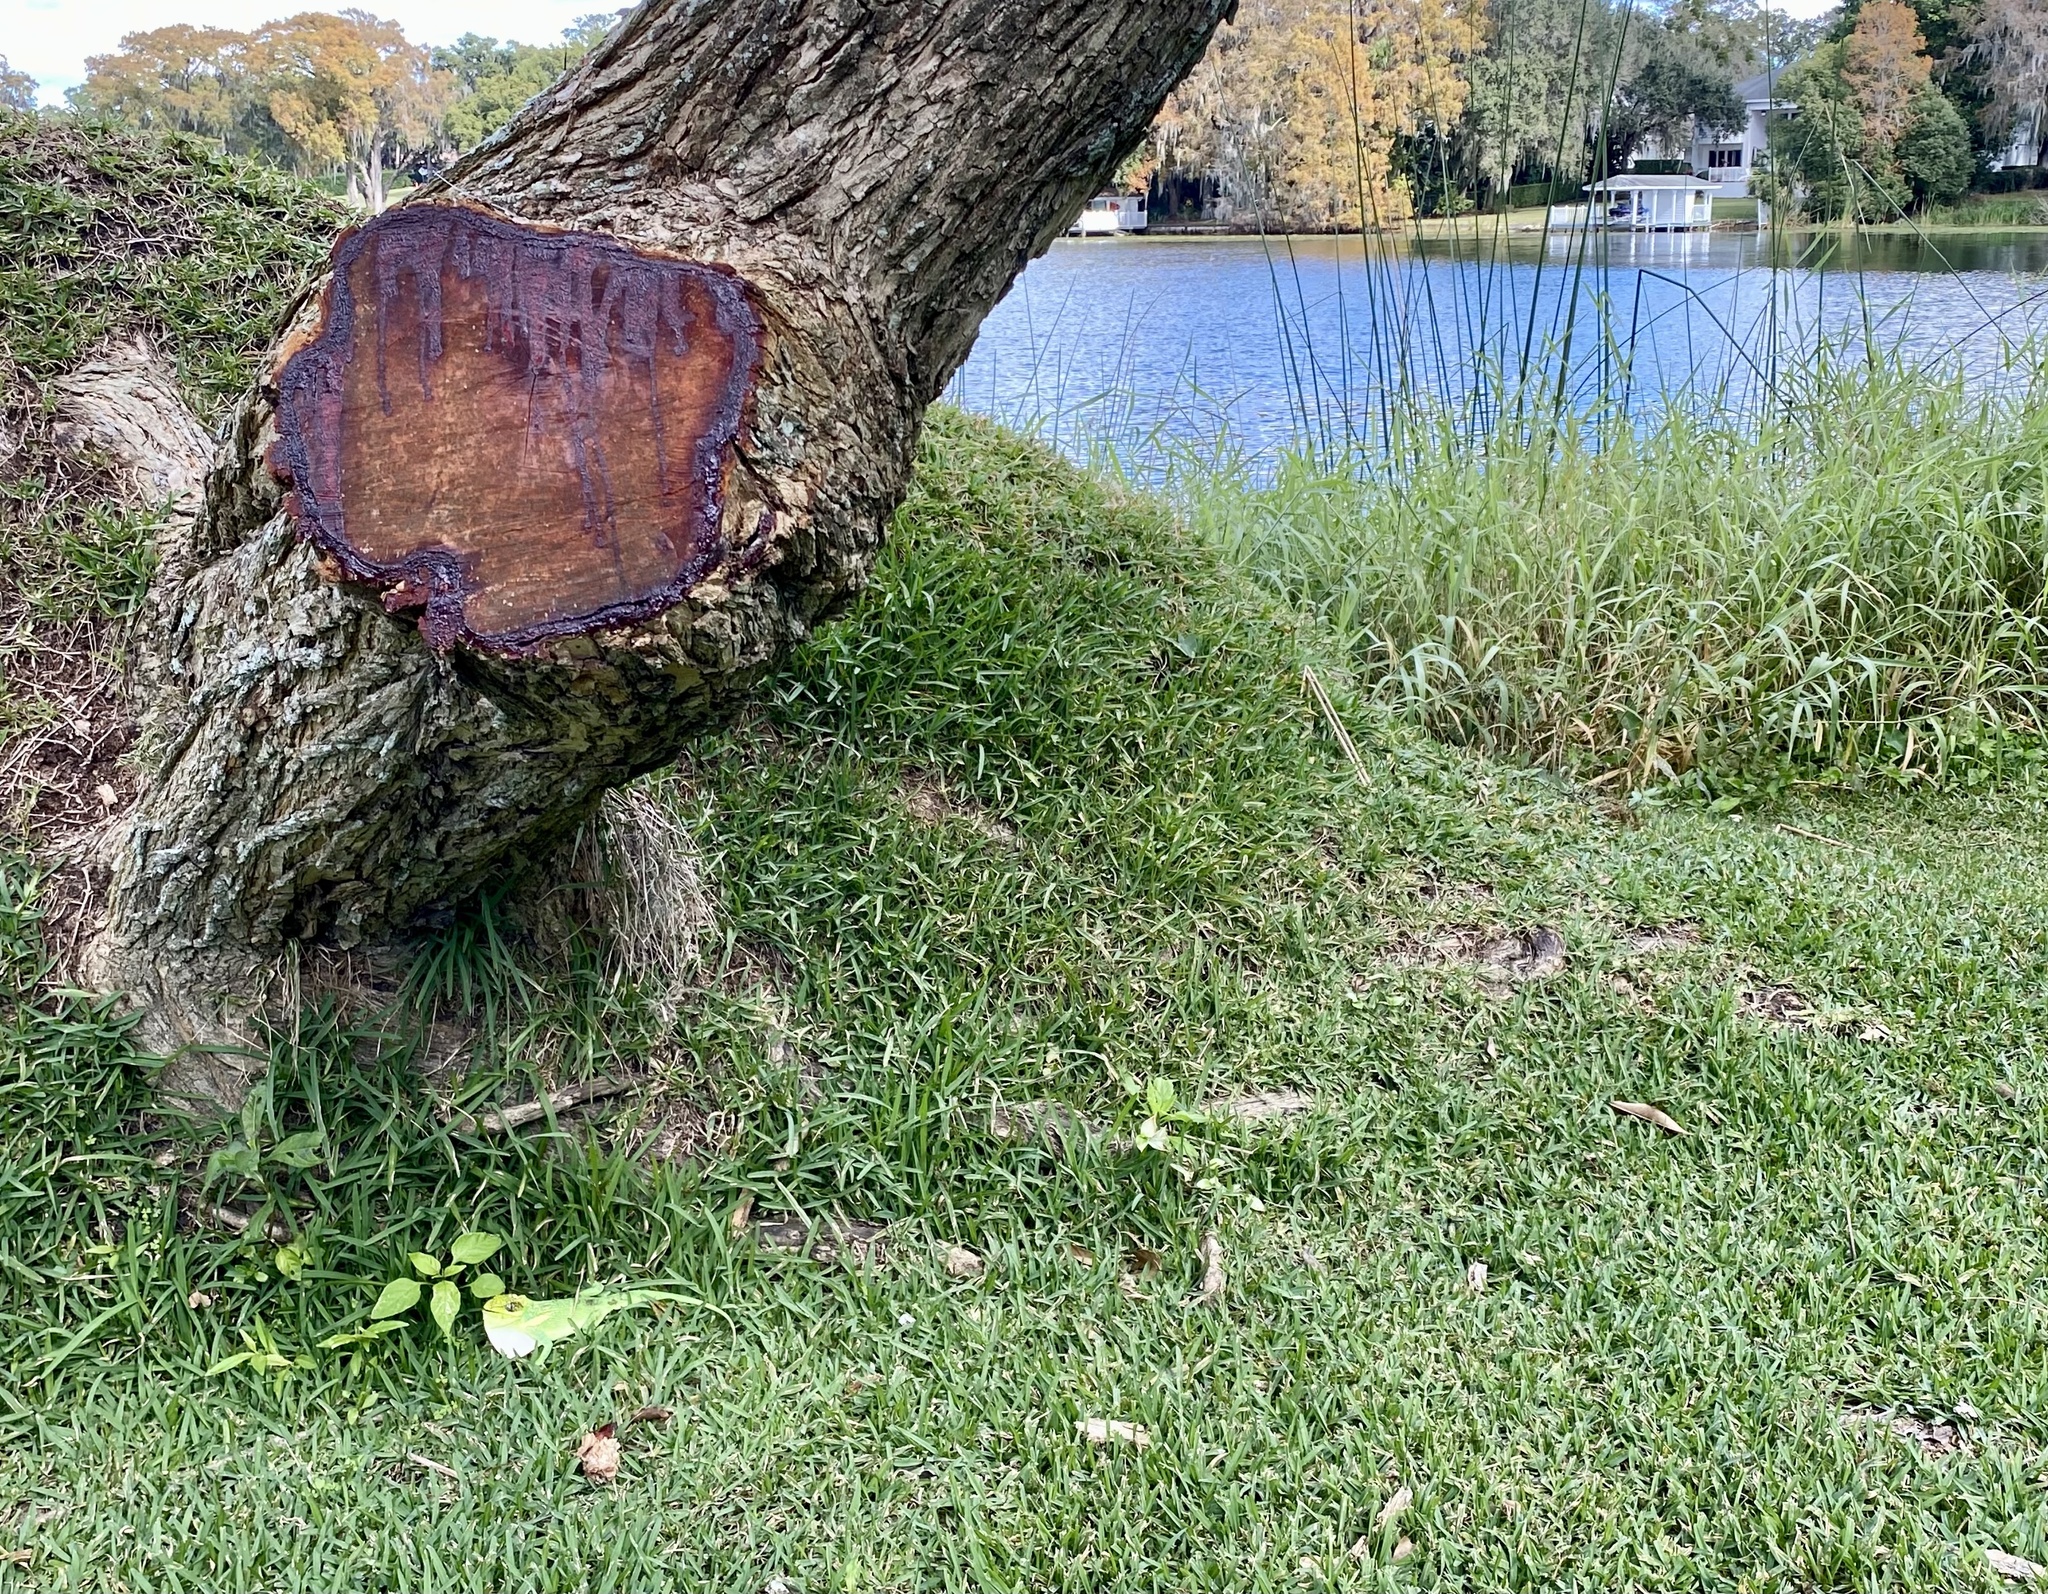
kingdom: Animalia
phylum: Chordata
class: Squamata
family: Dactyloidae
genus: Anolis
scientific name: Anolis equestris
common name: Knight anole
